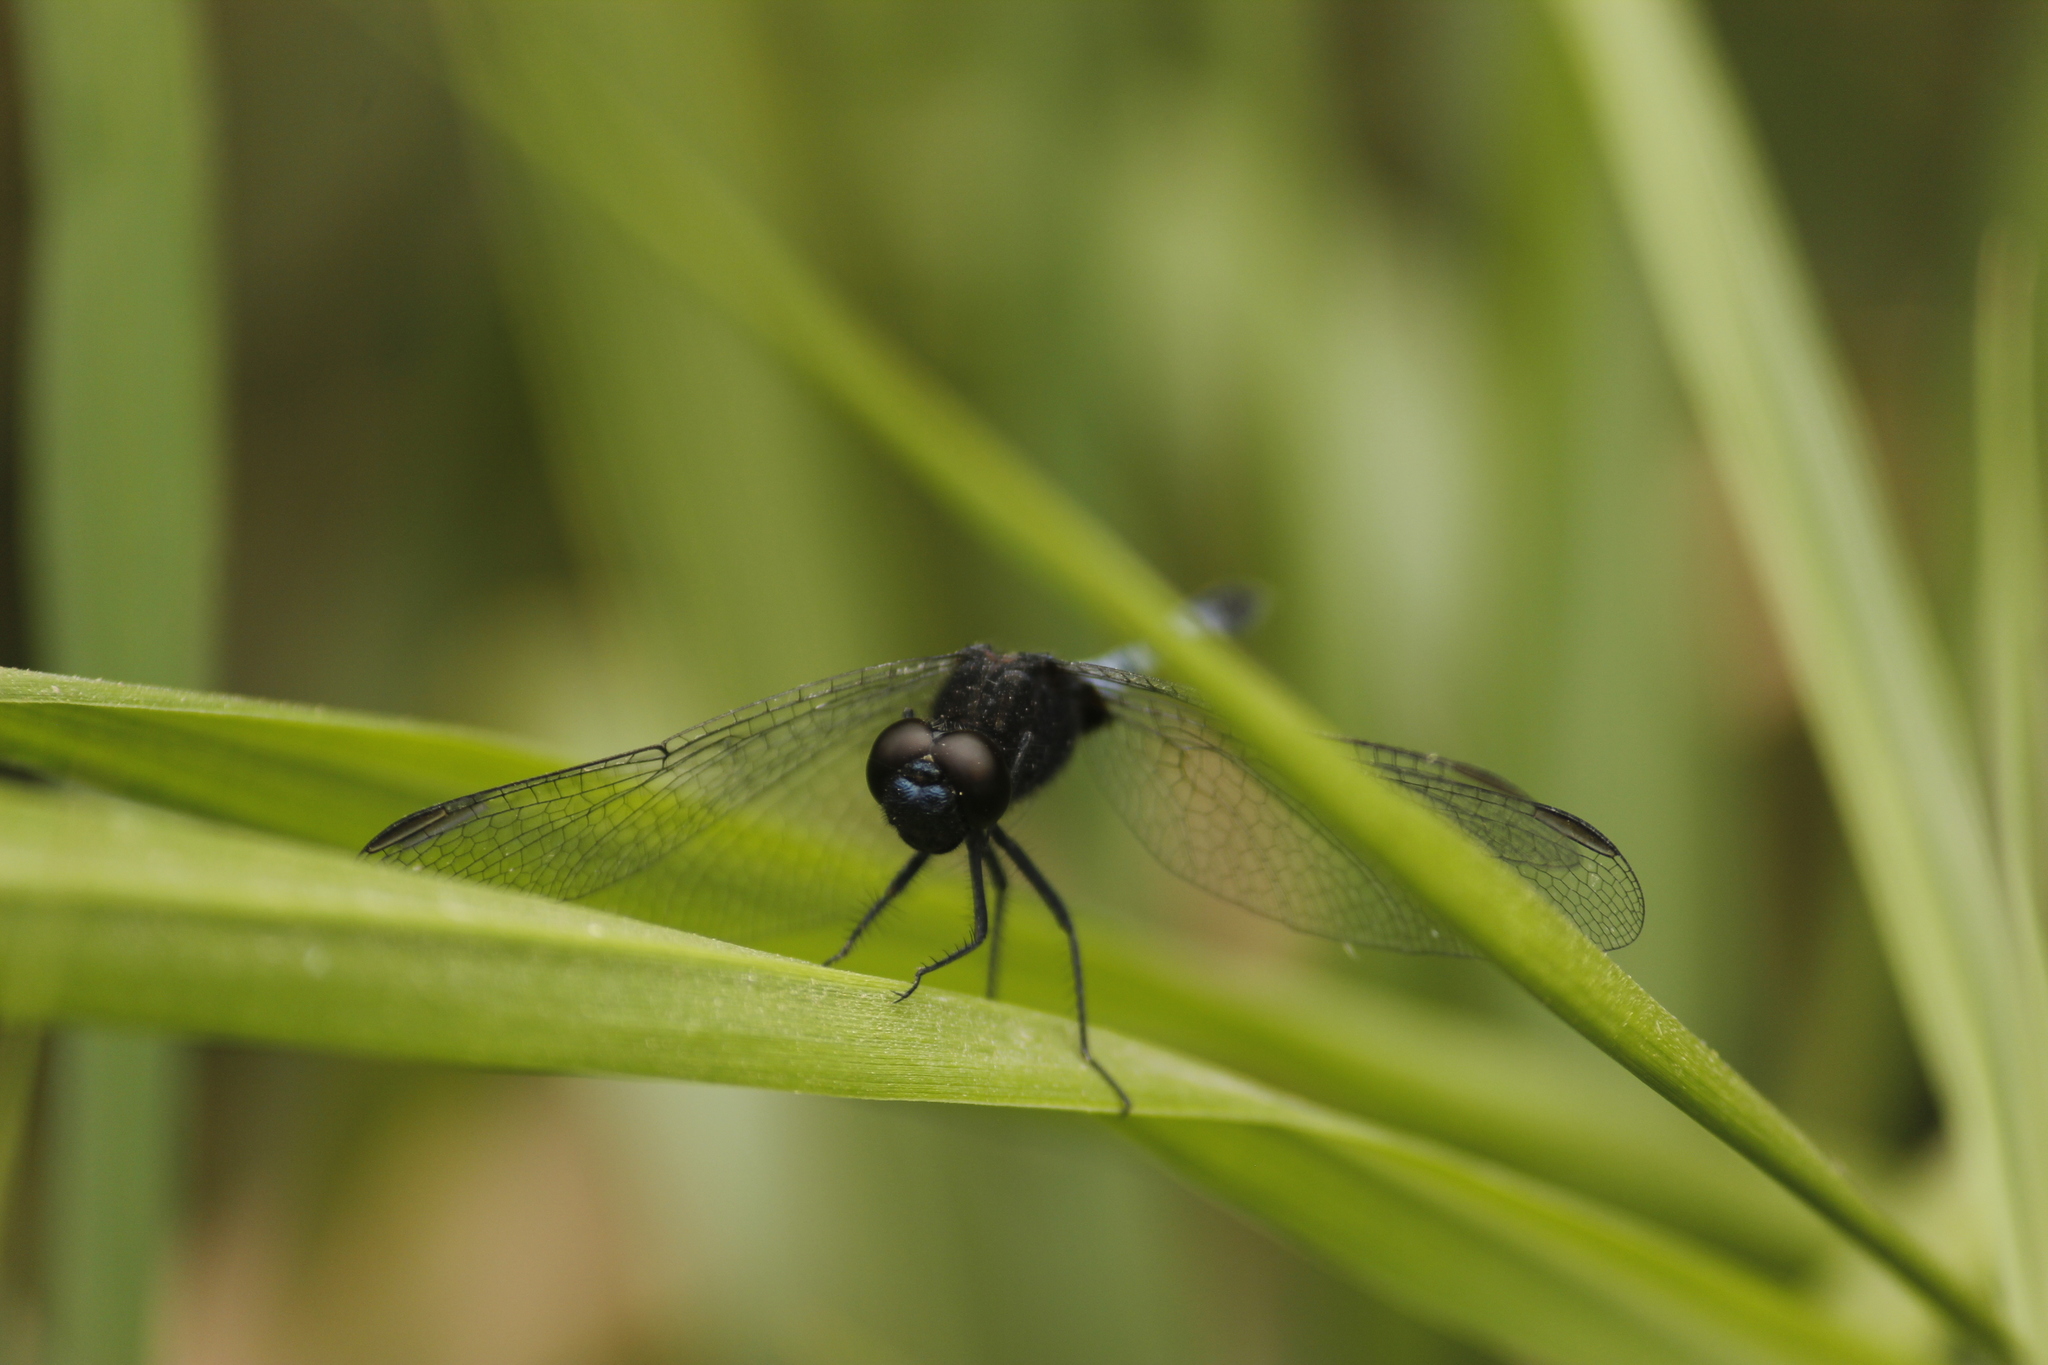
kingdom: Animalia
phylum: Arthropoda
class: Insecta
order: Odonata
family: Libellulidae
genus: Erythrodiplax
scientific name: Erythrodiplax cleopatra
